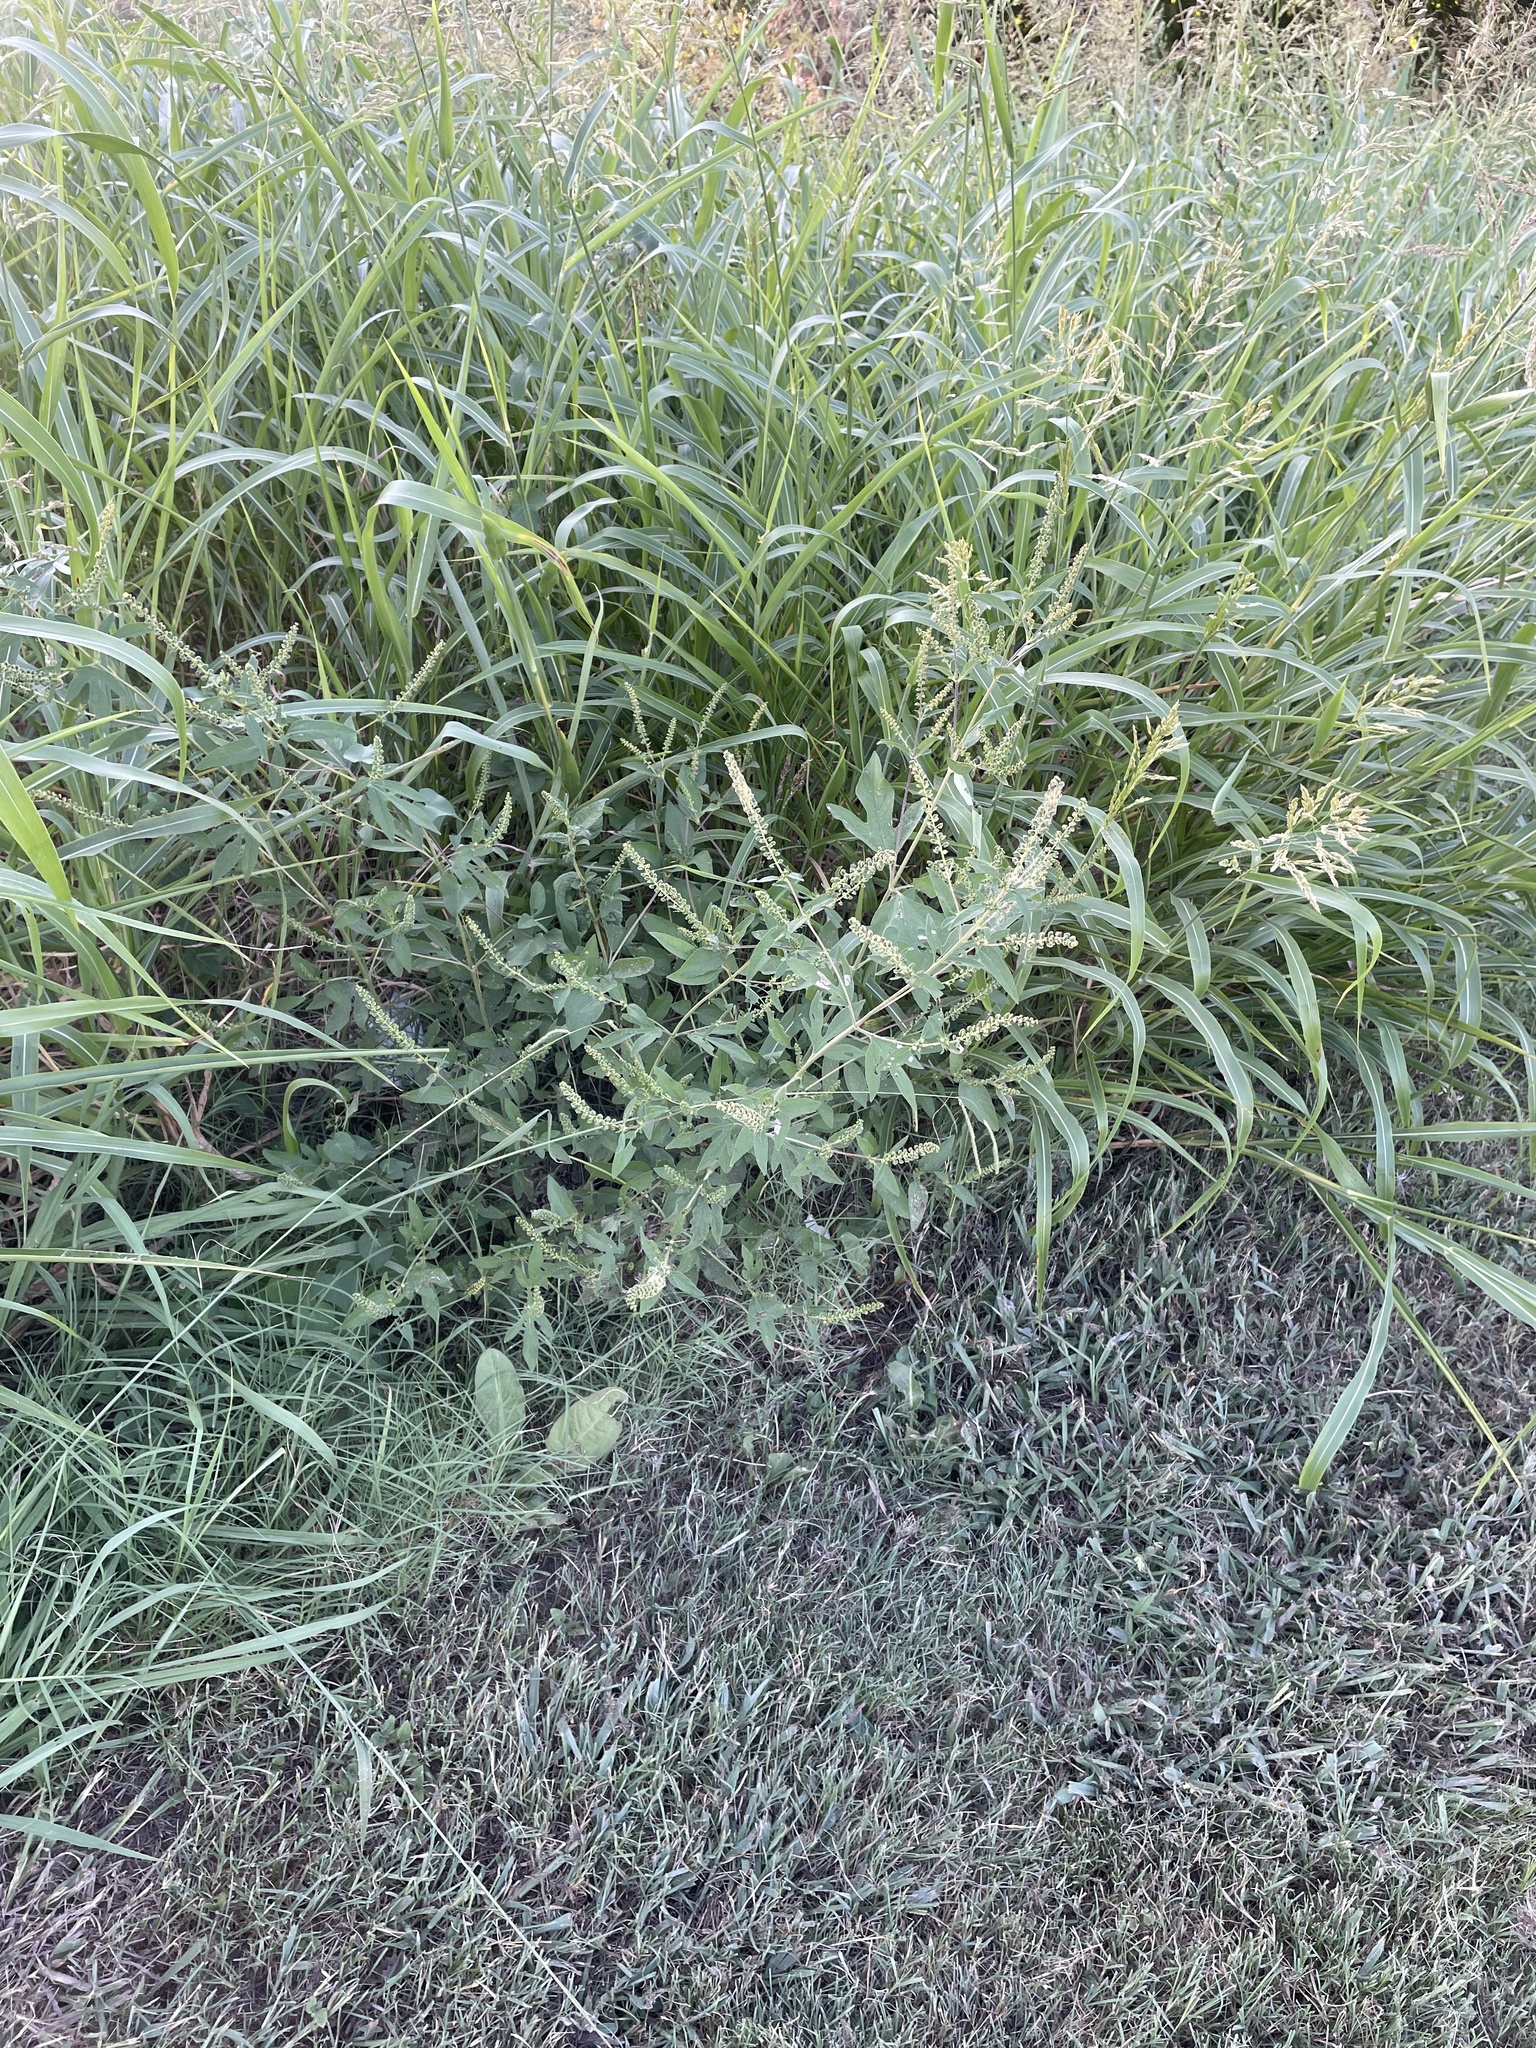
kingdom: Plantae
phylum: Tracheophyta
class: Magnoliopsida
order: Asterales
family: Asteraceae
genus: Ambrosia
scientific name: Ambrosia trifida
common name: Giant ragweed
